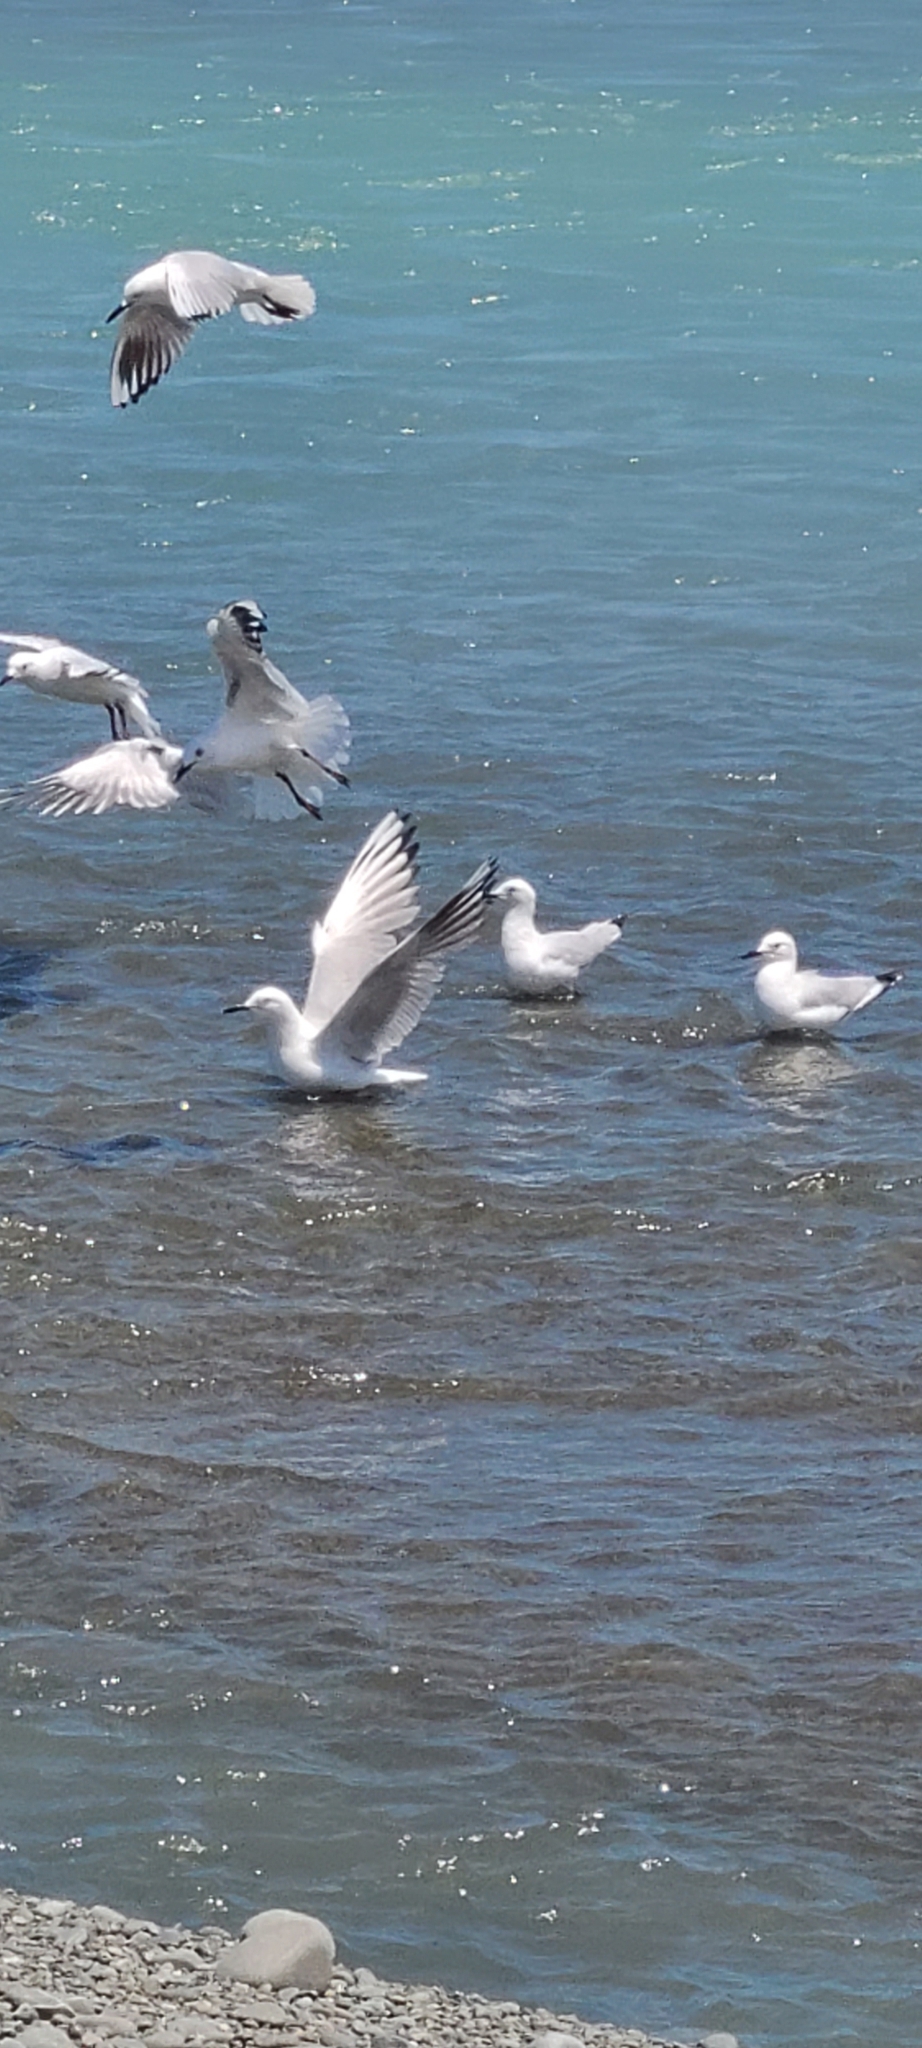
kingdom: Animalia
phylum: Chordata
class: Aves
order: Charadriiformes
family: Laridae
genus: Chroicocephalus
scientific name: Chroicocephalus bulleri
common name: Black-billed gull
